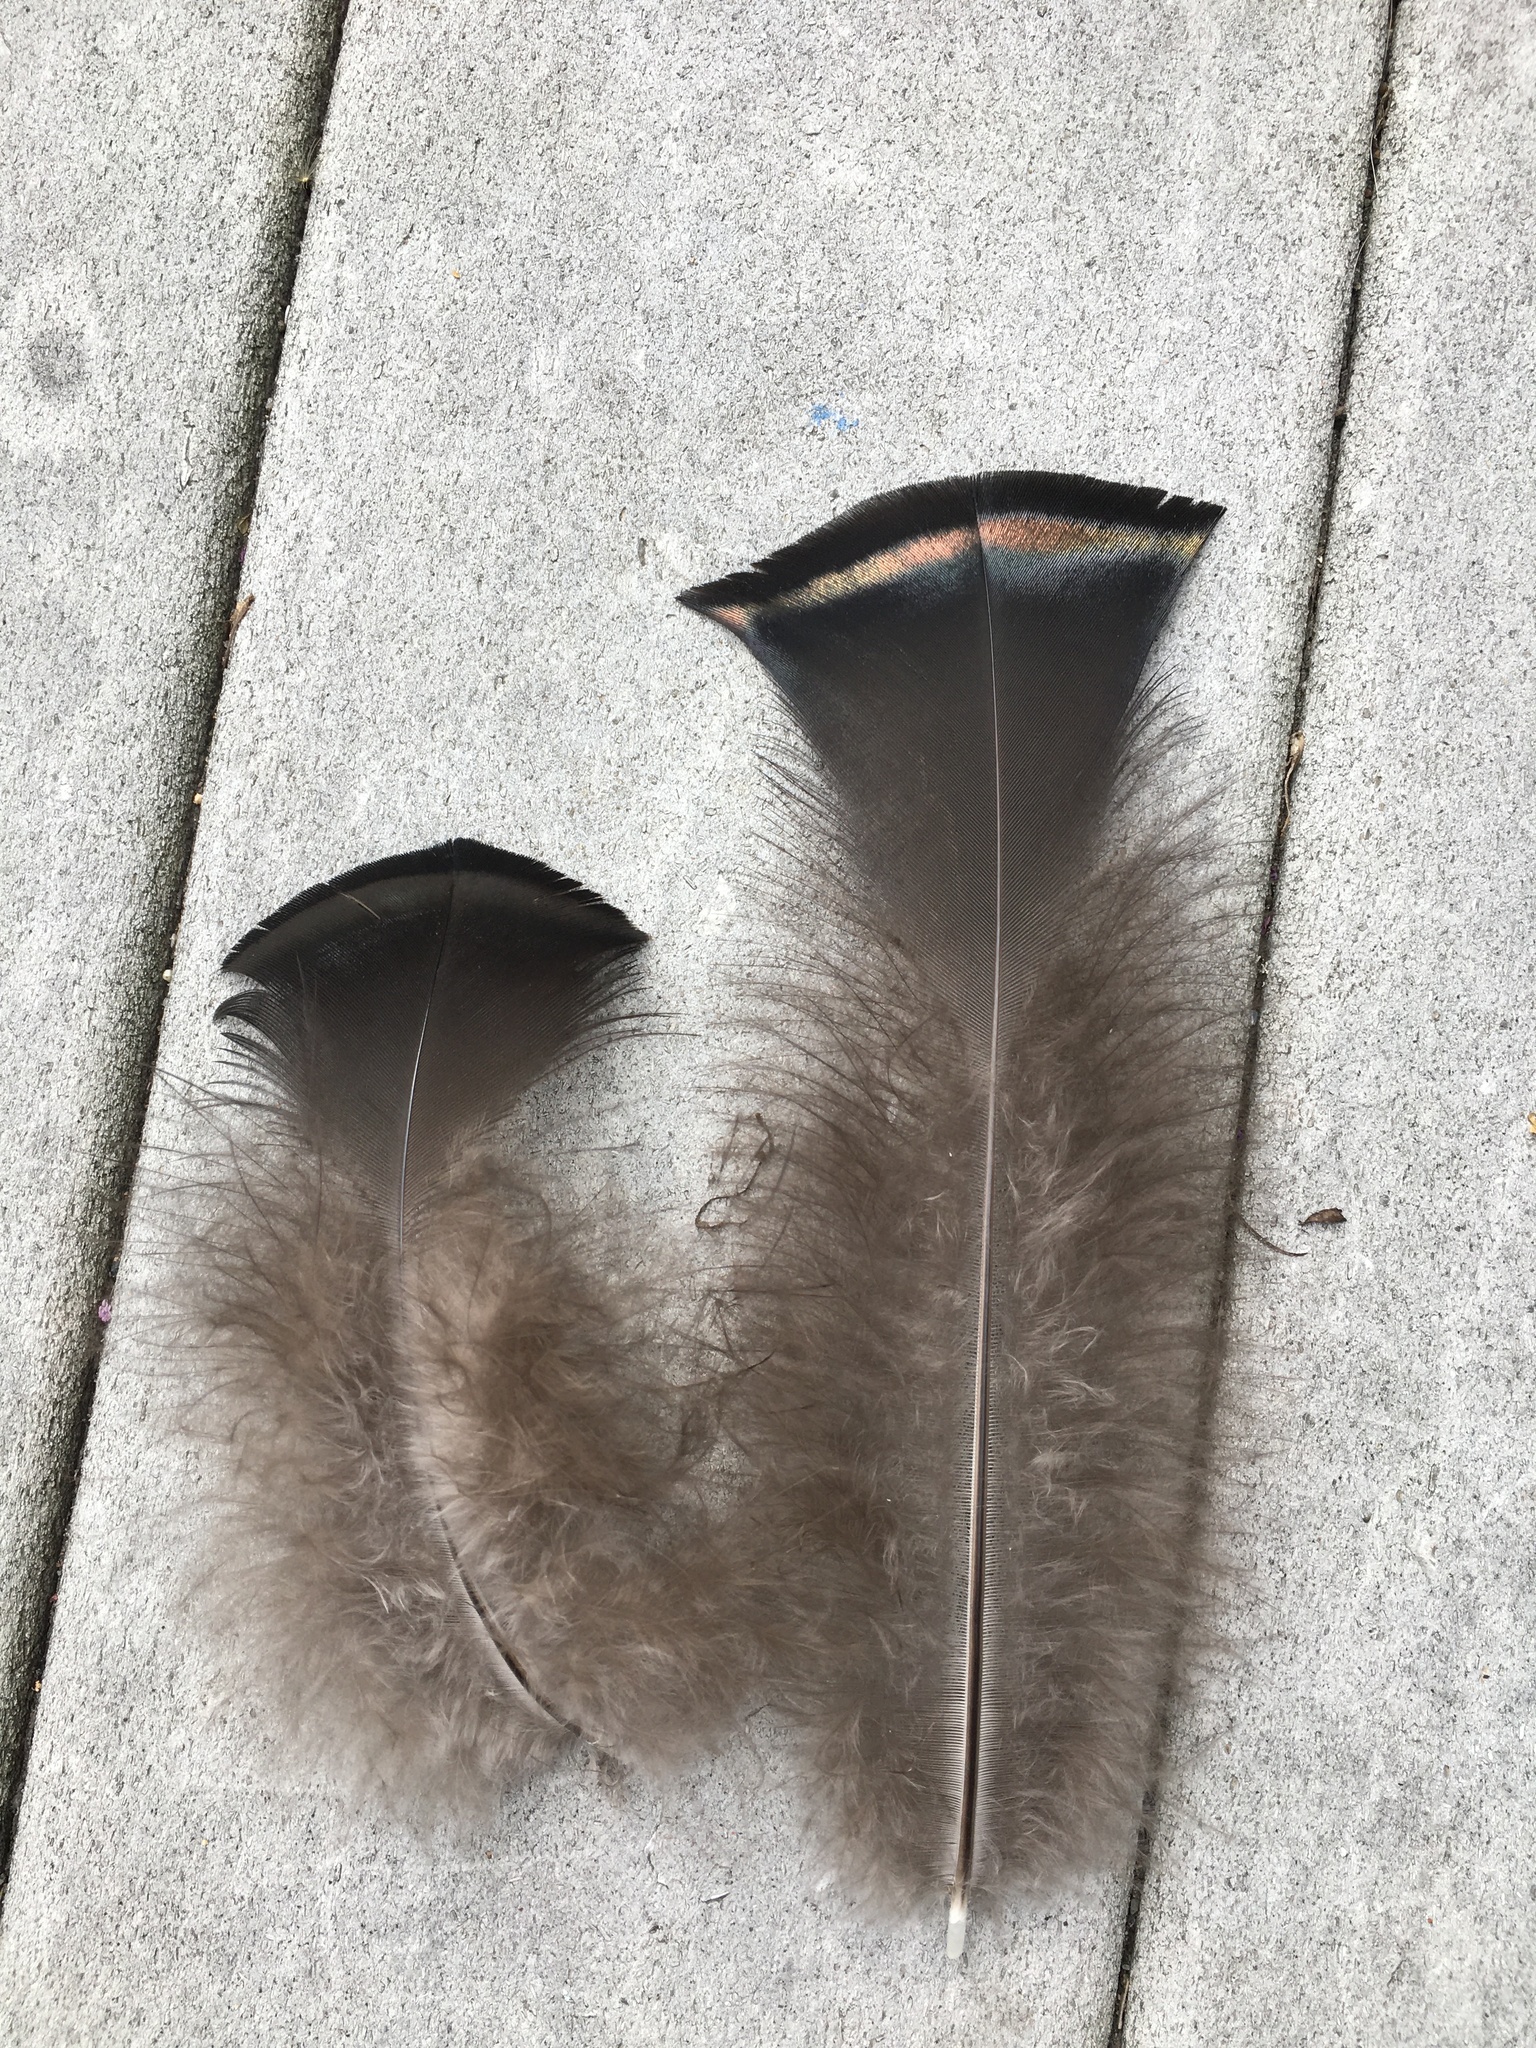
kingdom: Animalia
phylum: Chordata
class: Aves
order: Galliformes
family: Phasianidae
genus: Meleagris
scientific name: Meleagris gallopavo
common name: Wild turkey
